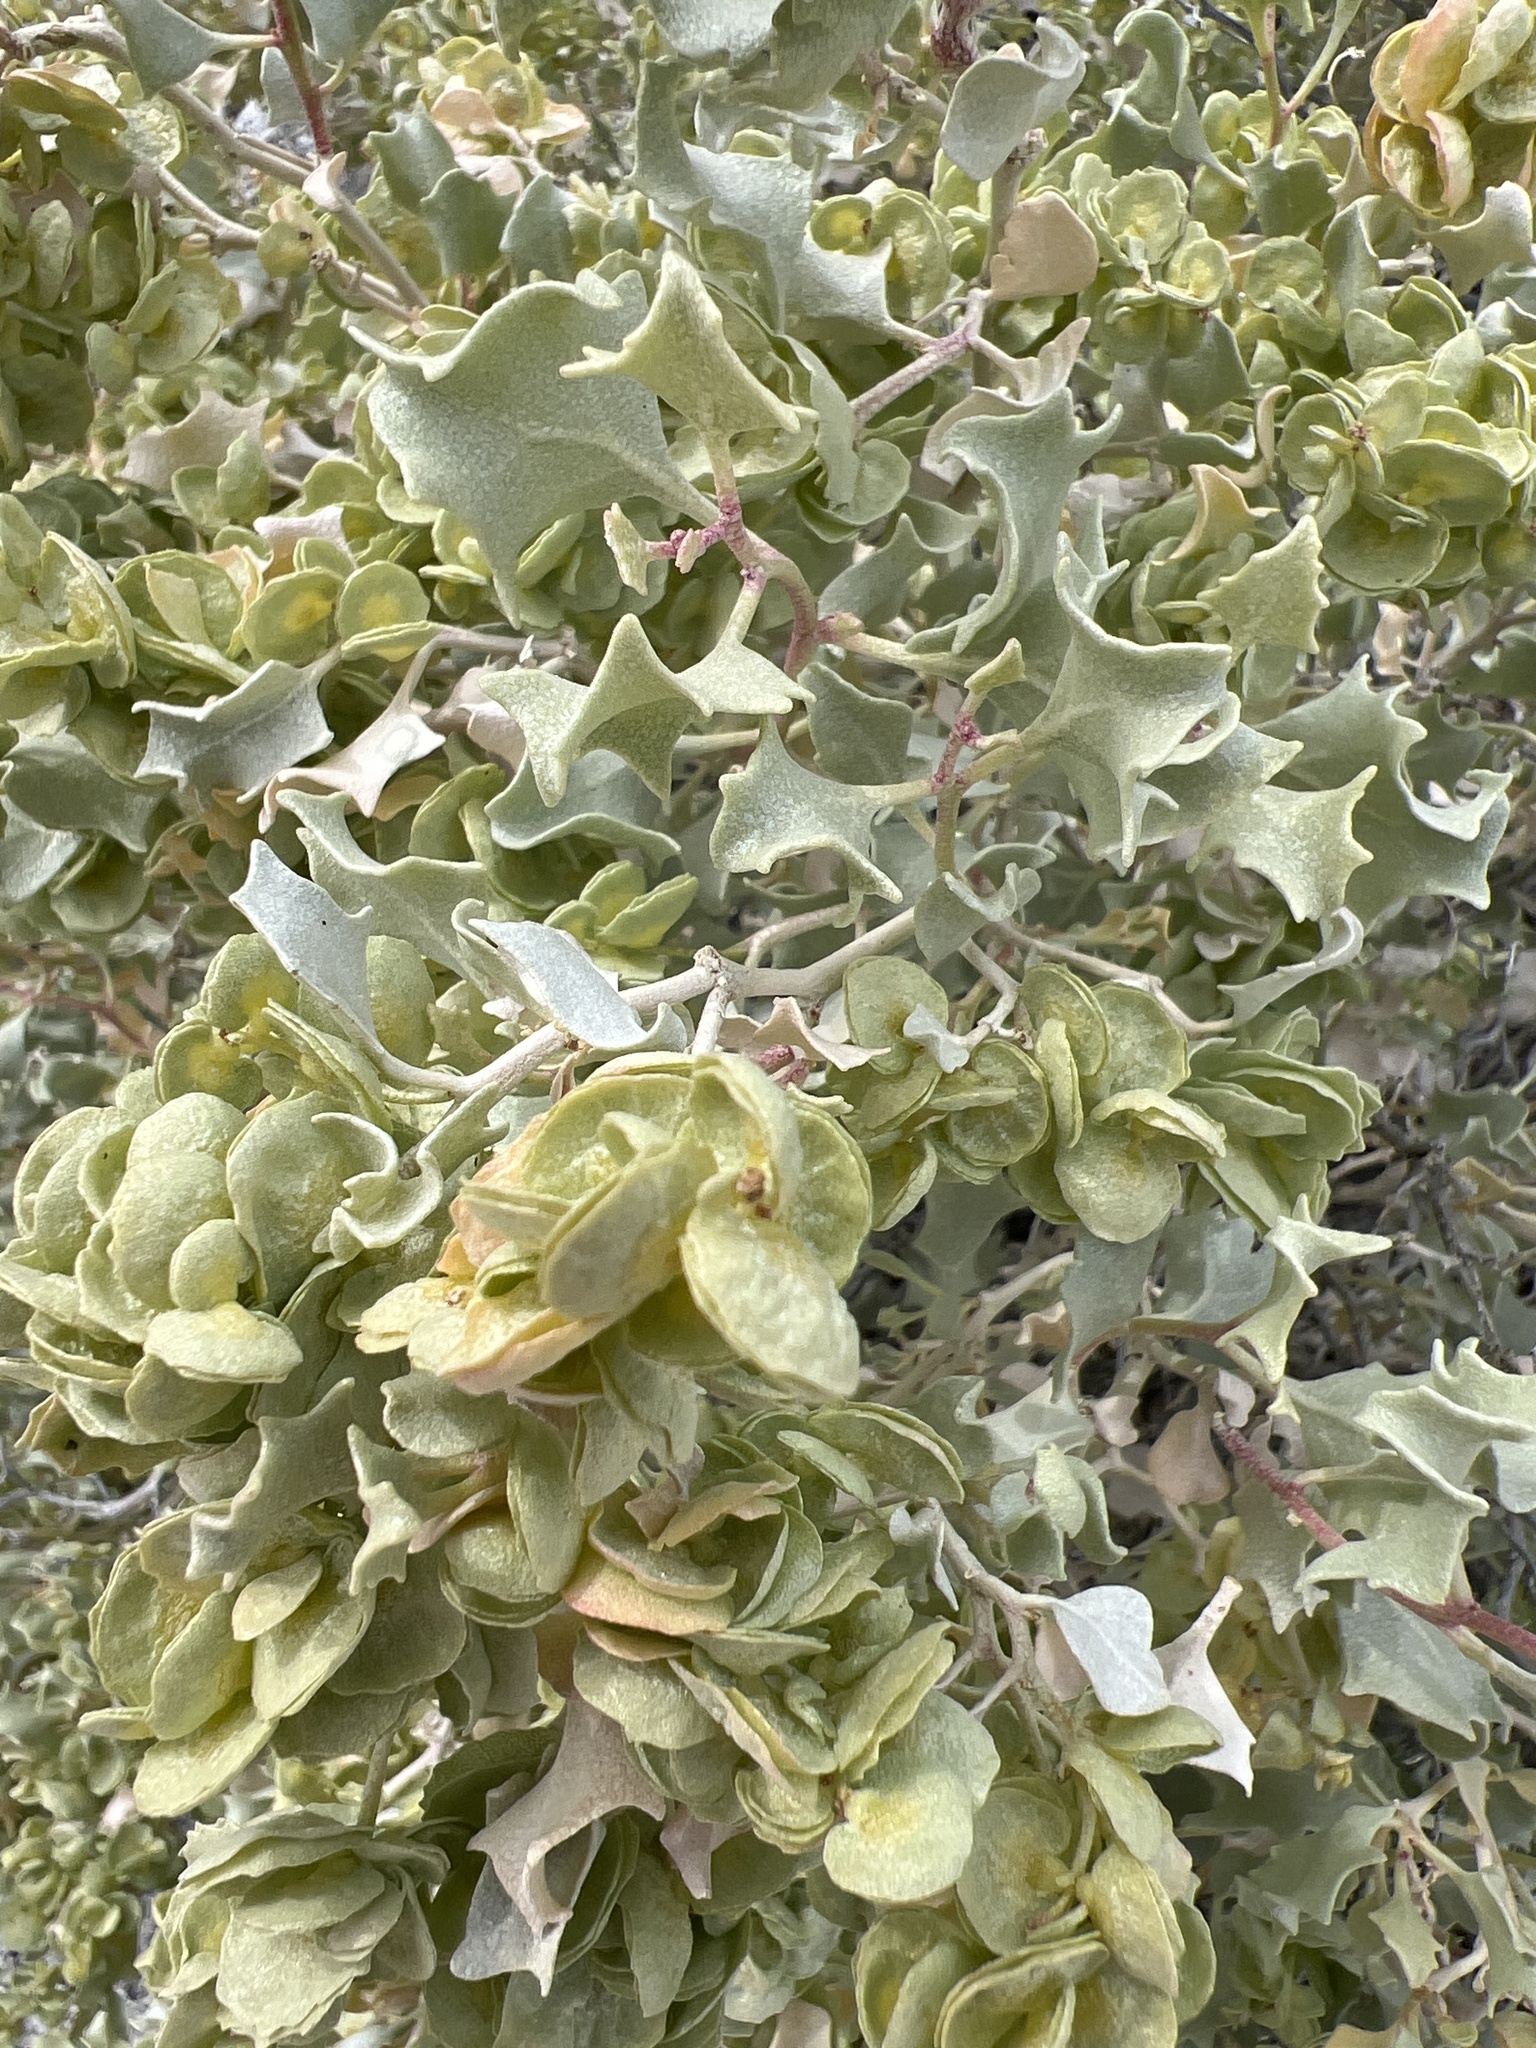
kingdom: Plantae
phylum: Tracheophyta
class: Magnoliopsida
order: Caryophyllales
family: Amaranthaceae
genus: Atriplex
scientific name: Atriplex hymenelytra
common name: Desert-holly
